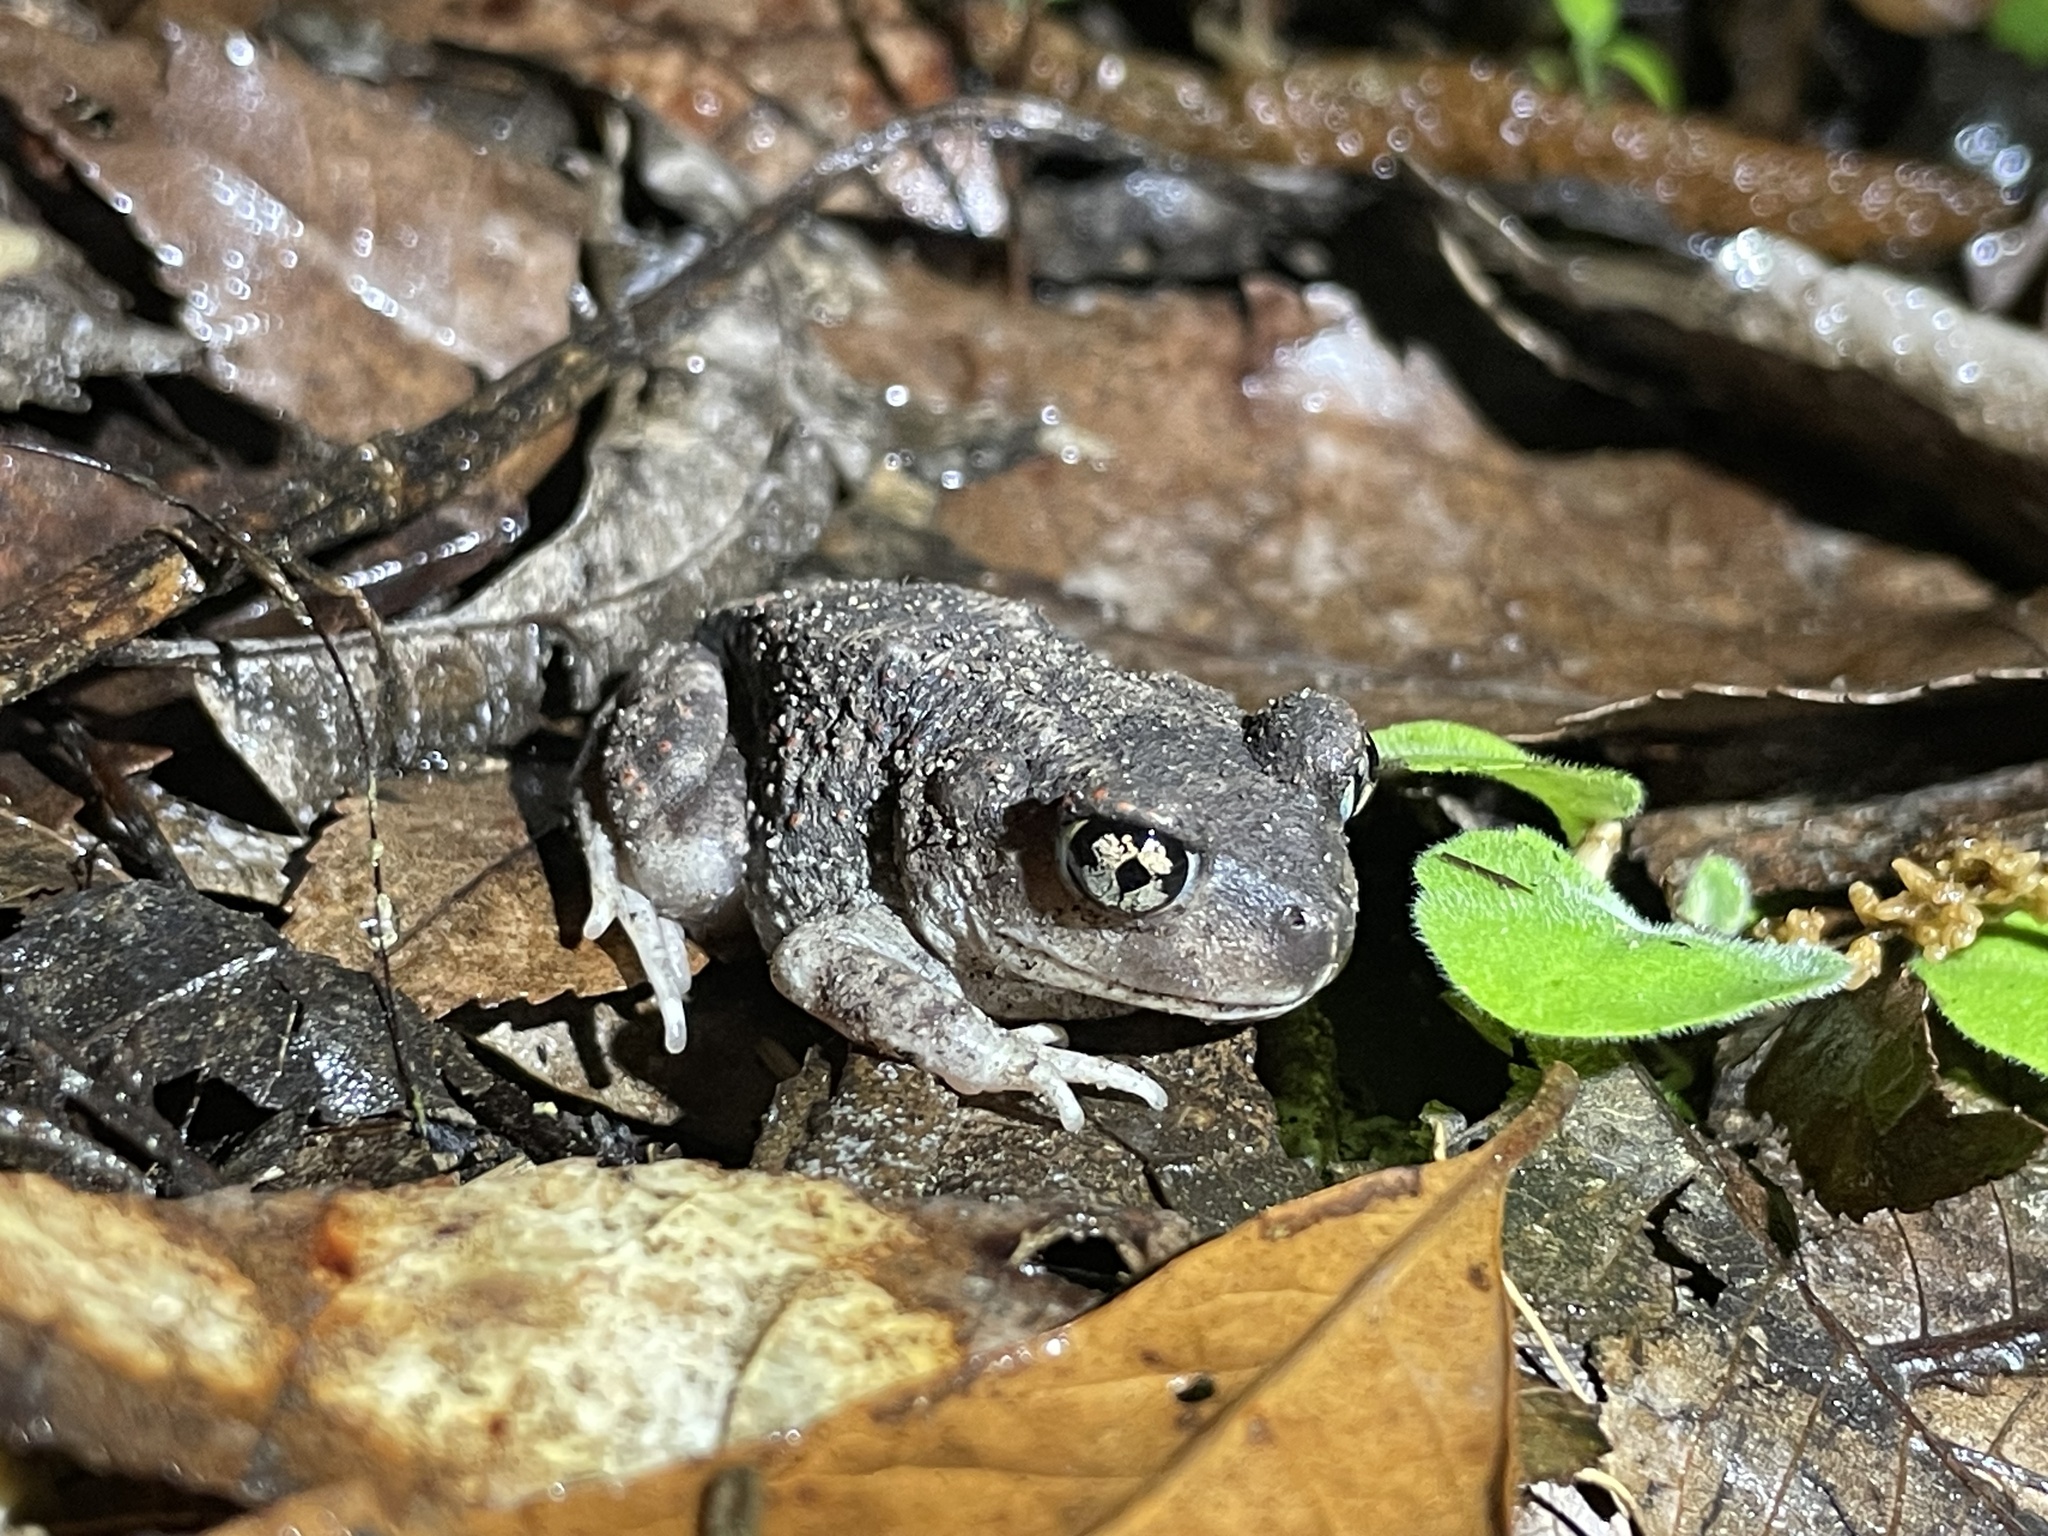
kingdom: Animalia
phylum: Chordata
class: Amphibia
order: Anura
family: Scaphiopodidae
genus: Scaphiopus
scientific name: Scaphiopus holbrookii
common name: Eastern spadefoot toad
